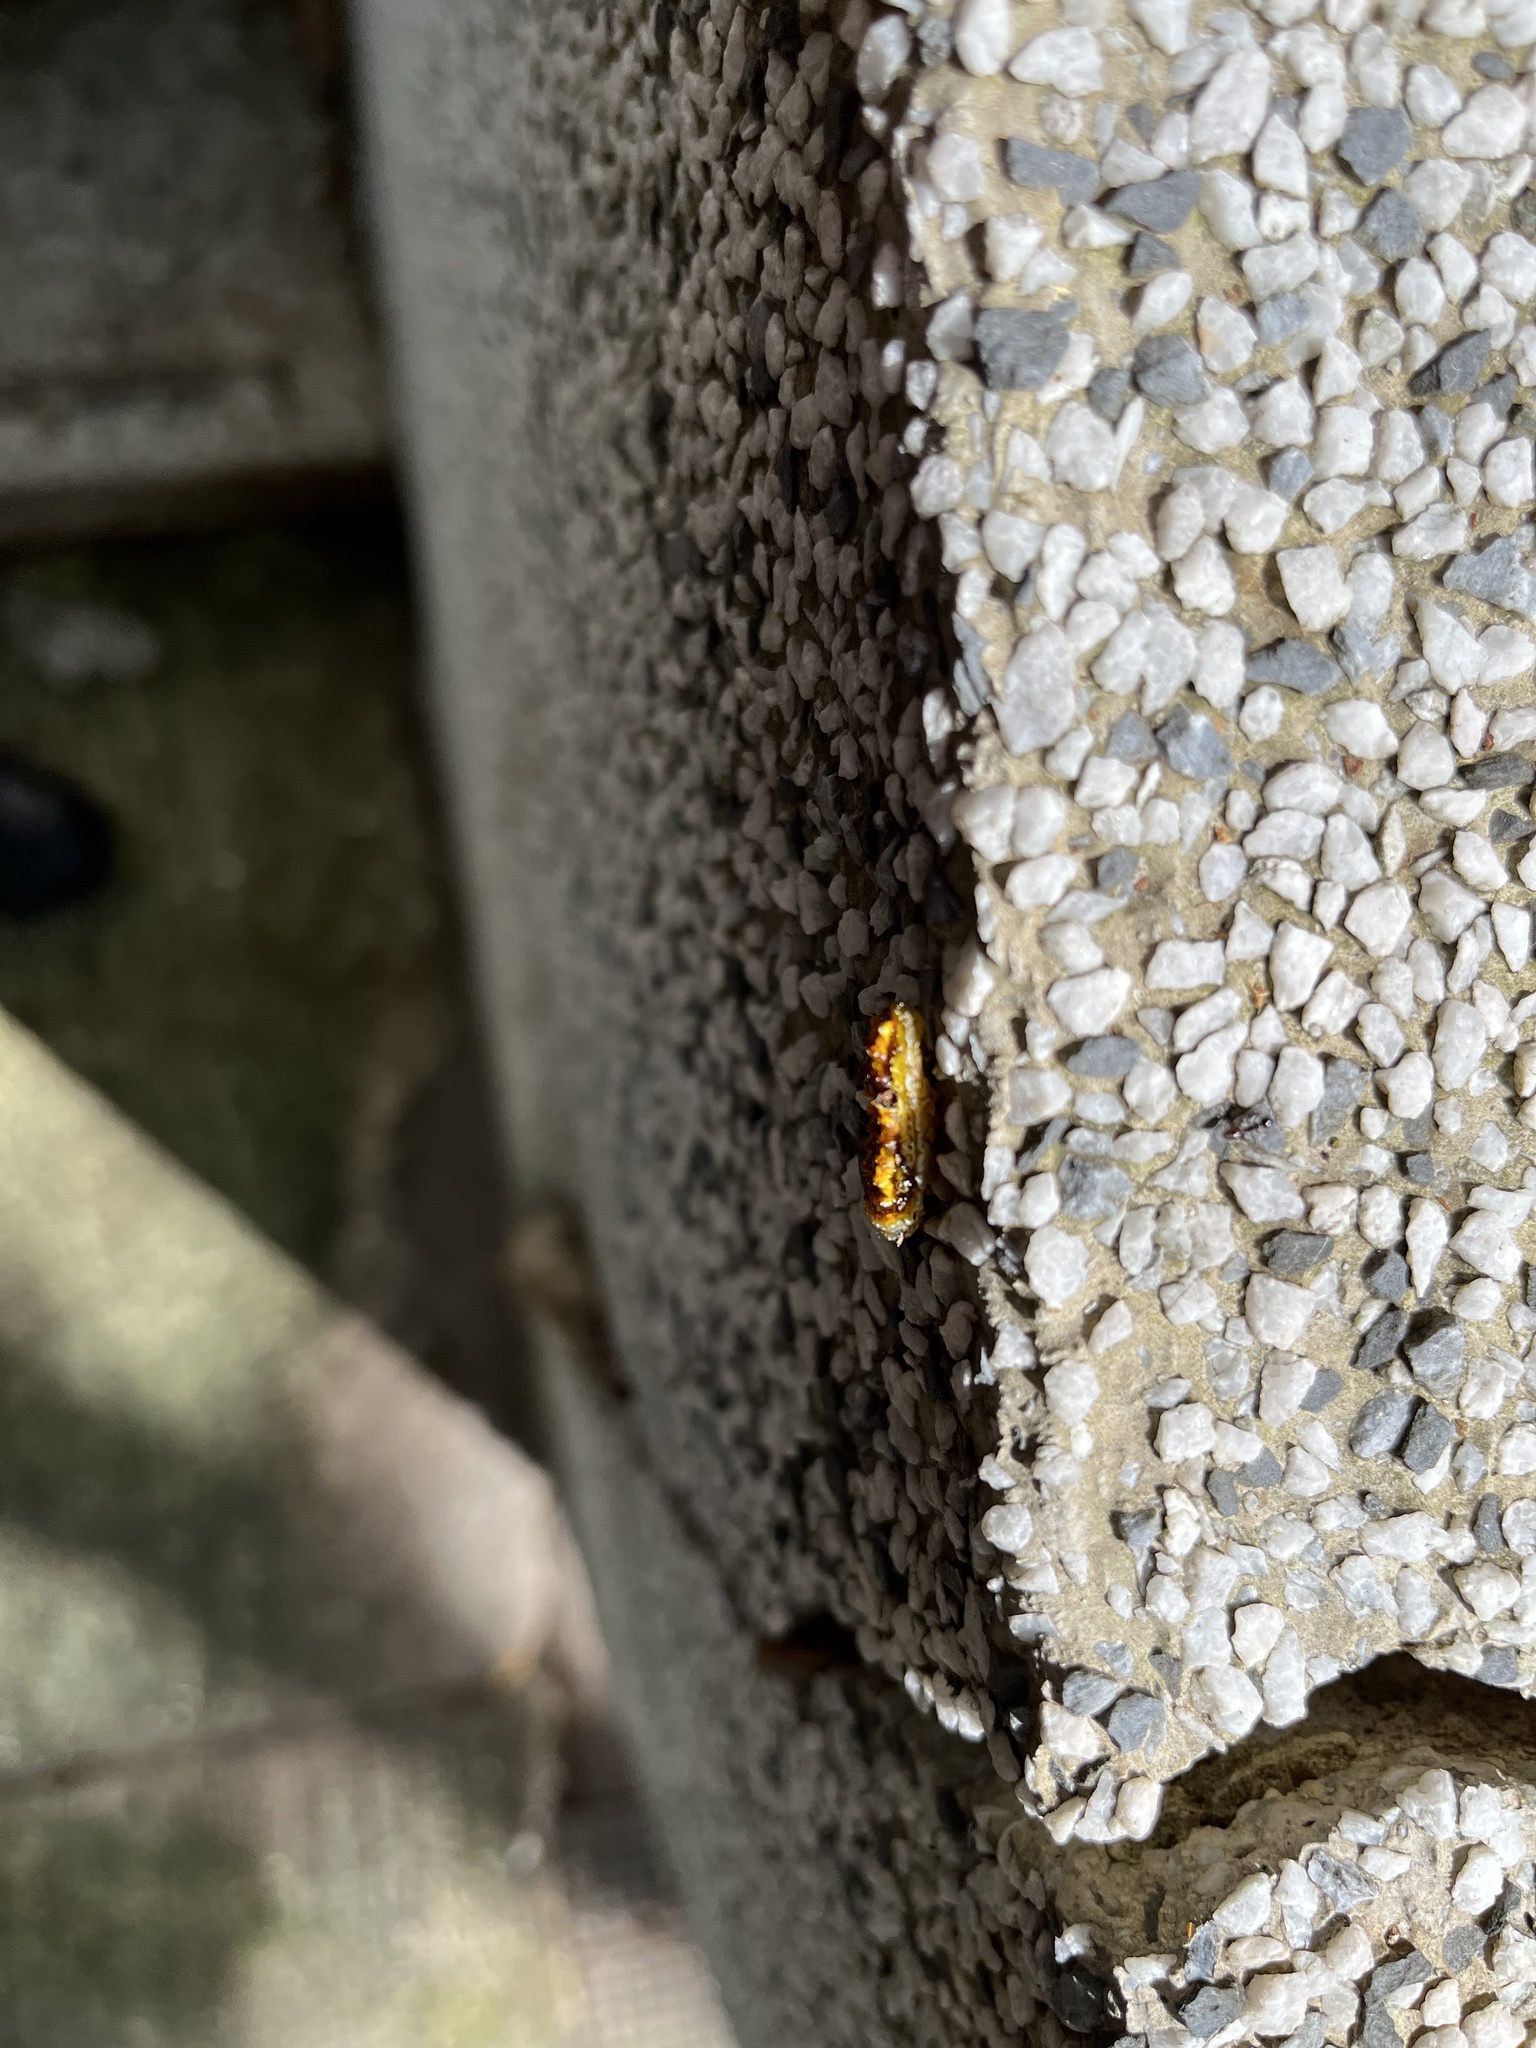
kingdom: Animalia
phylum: Arthropoda
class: Insecta
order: Lepidoptera
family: Phaudidae
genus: Phauda
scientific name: Phauda flammans
